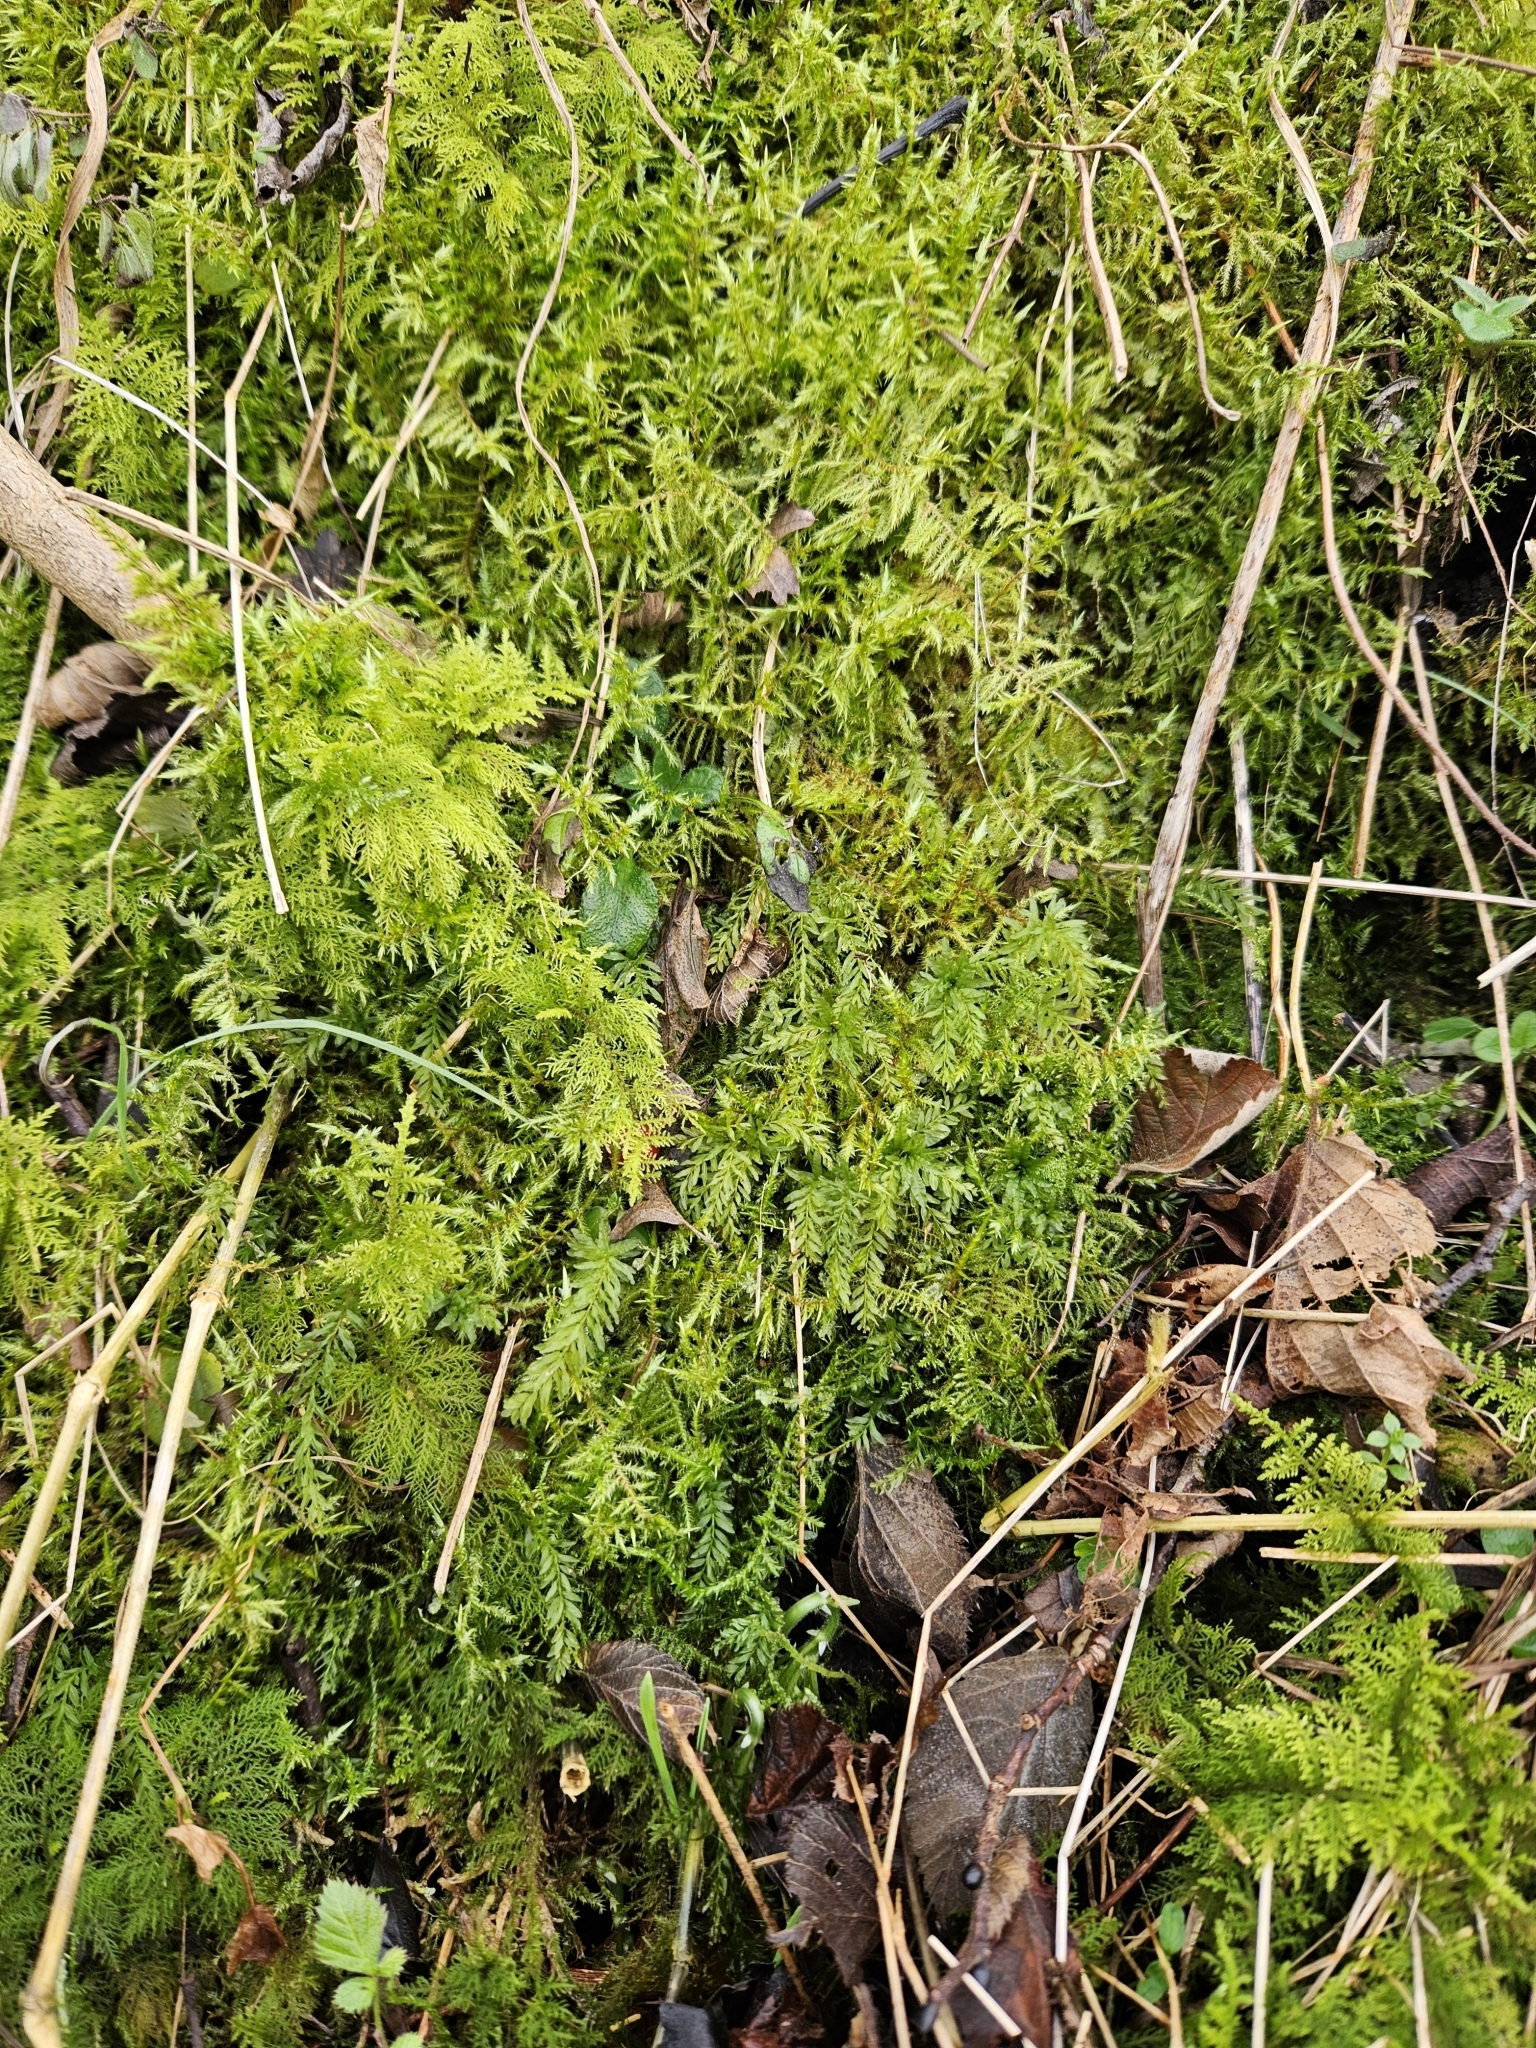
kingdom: Plantae
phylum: Bryophyta
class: Bryopsida
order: Bryales
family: Mniaceae
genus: Plagiomnium
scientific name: Plagiomnium undulatum
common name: Hart's-tongue thyme-moss
